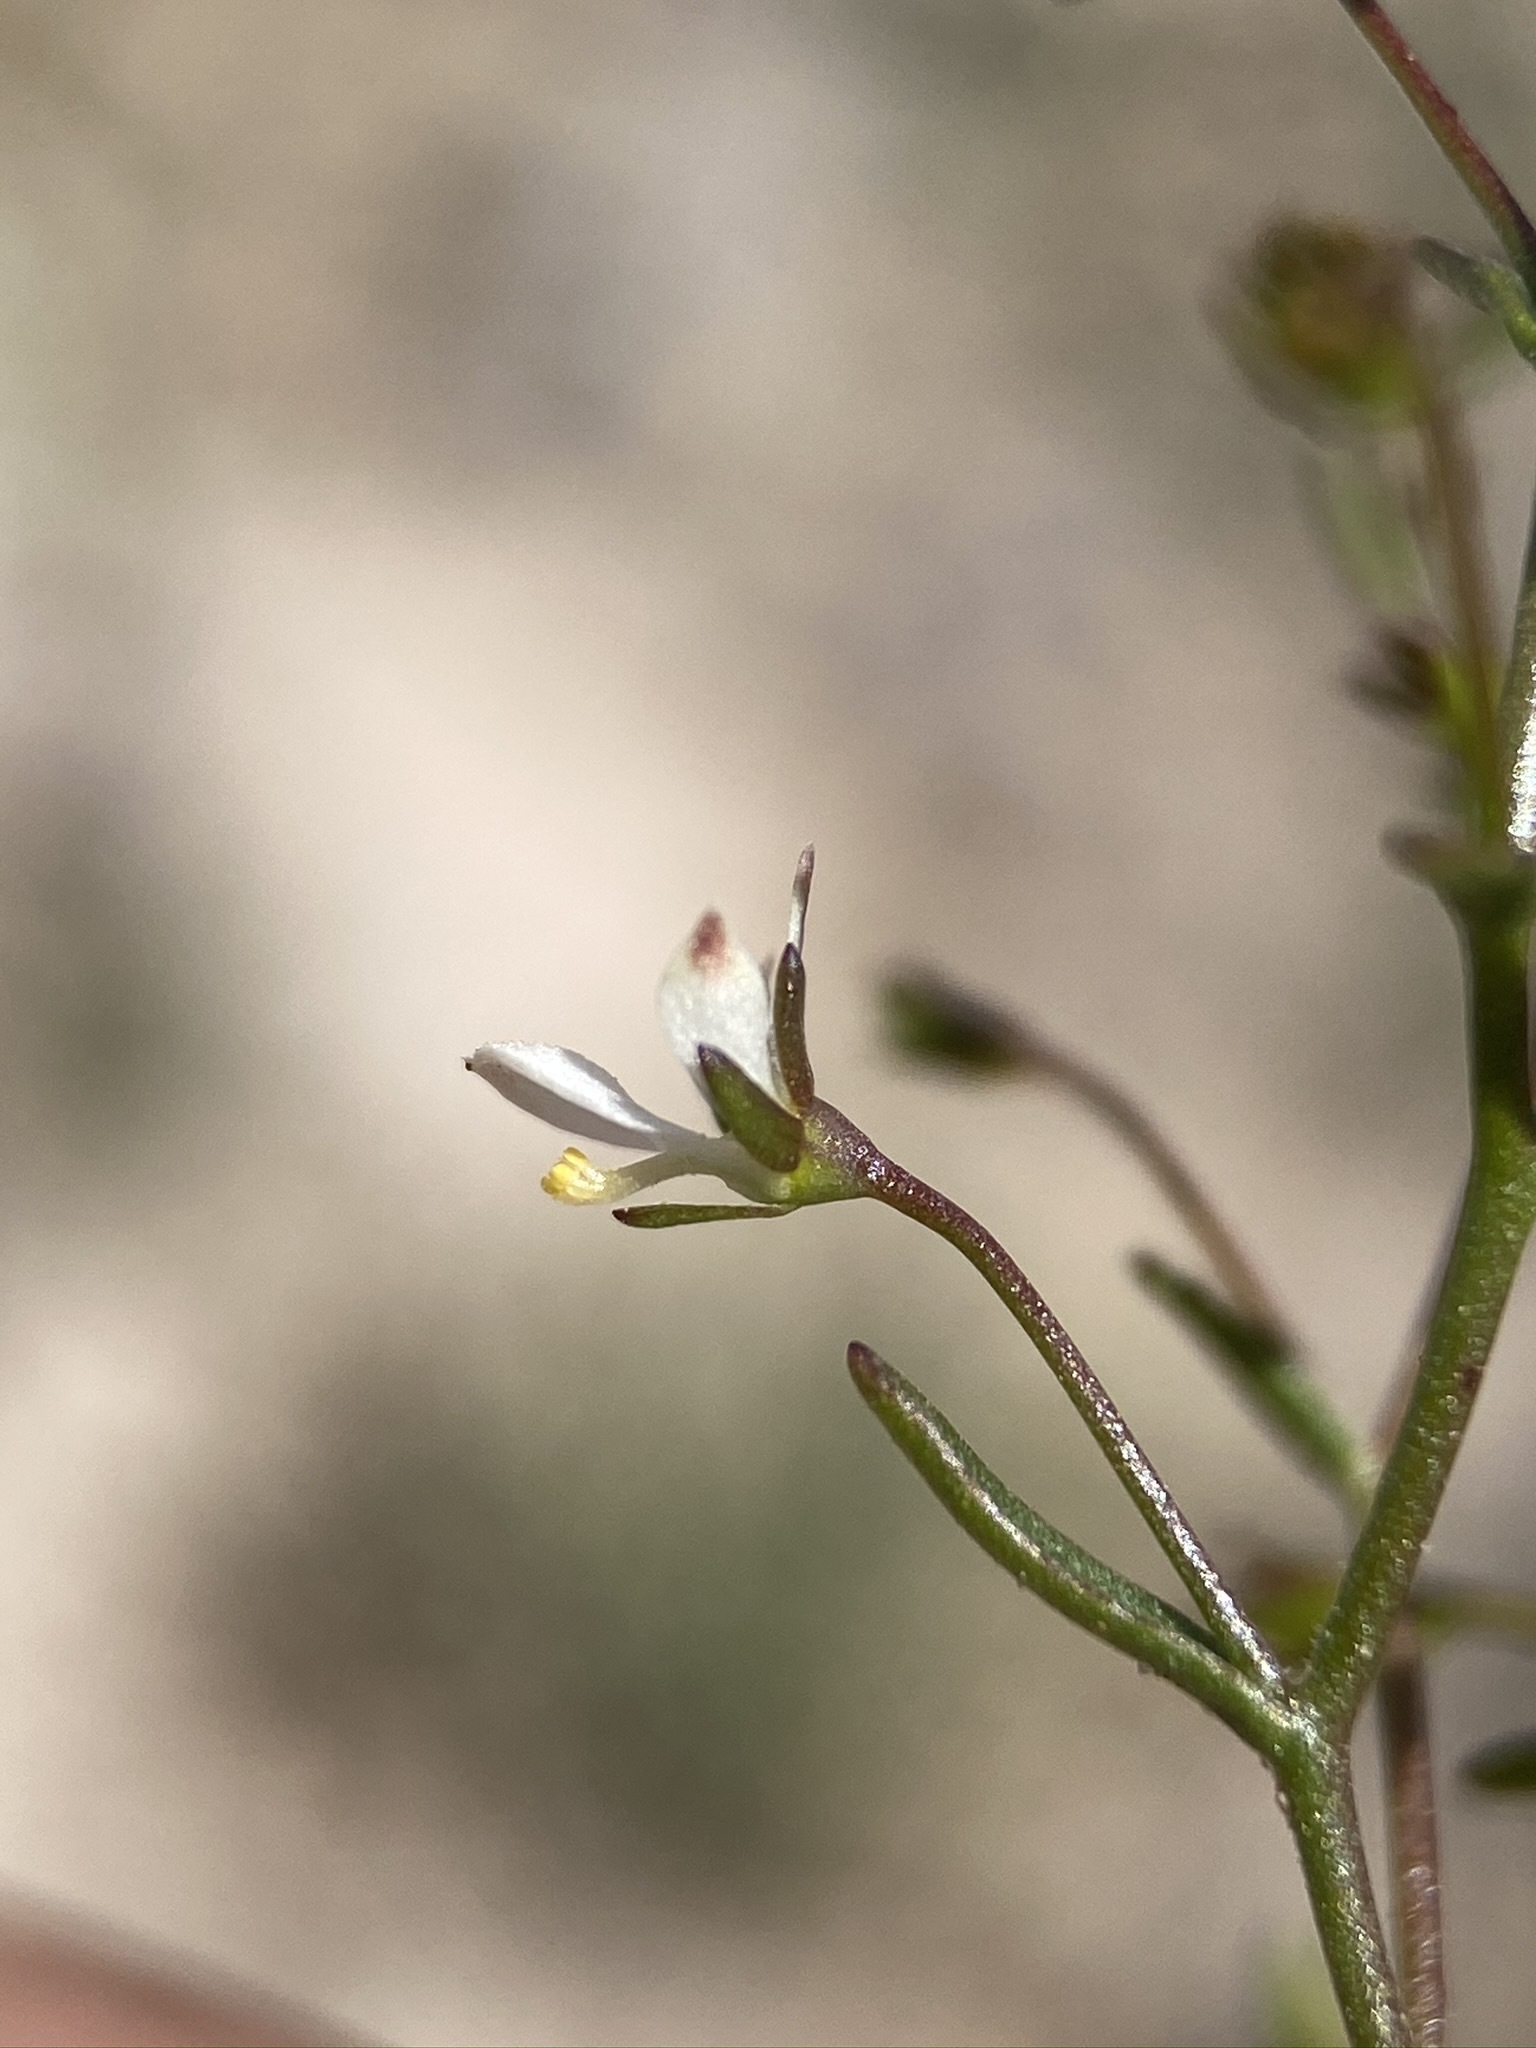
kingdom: Plantae
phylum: Tracheophyta
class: Magnoliopsida
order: Asterales
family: Campanulaceae
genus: Nemacladus
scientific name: Nemacladus orientalis
